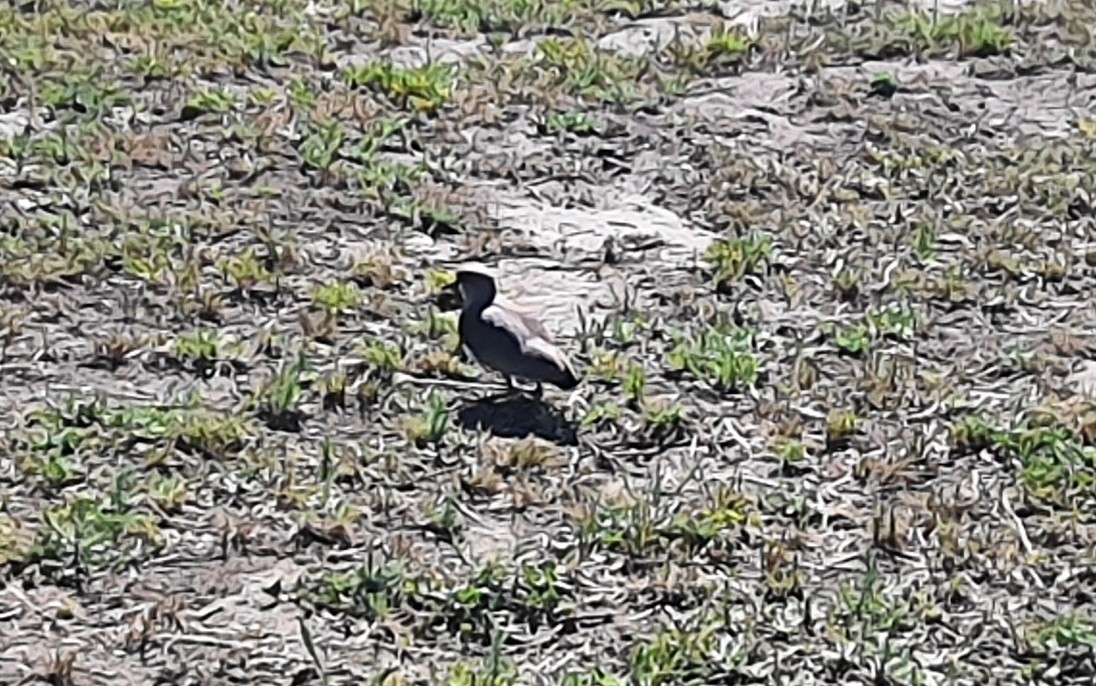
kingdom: Animalia
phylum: Chordata
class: Aves
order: Charadriiformes
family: Charadriidae
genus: Vanellus
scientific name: Vanellus chilensis
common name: Southern lapwing
